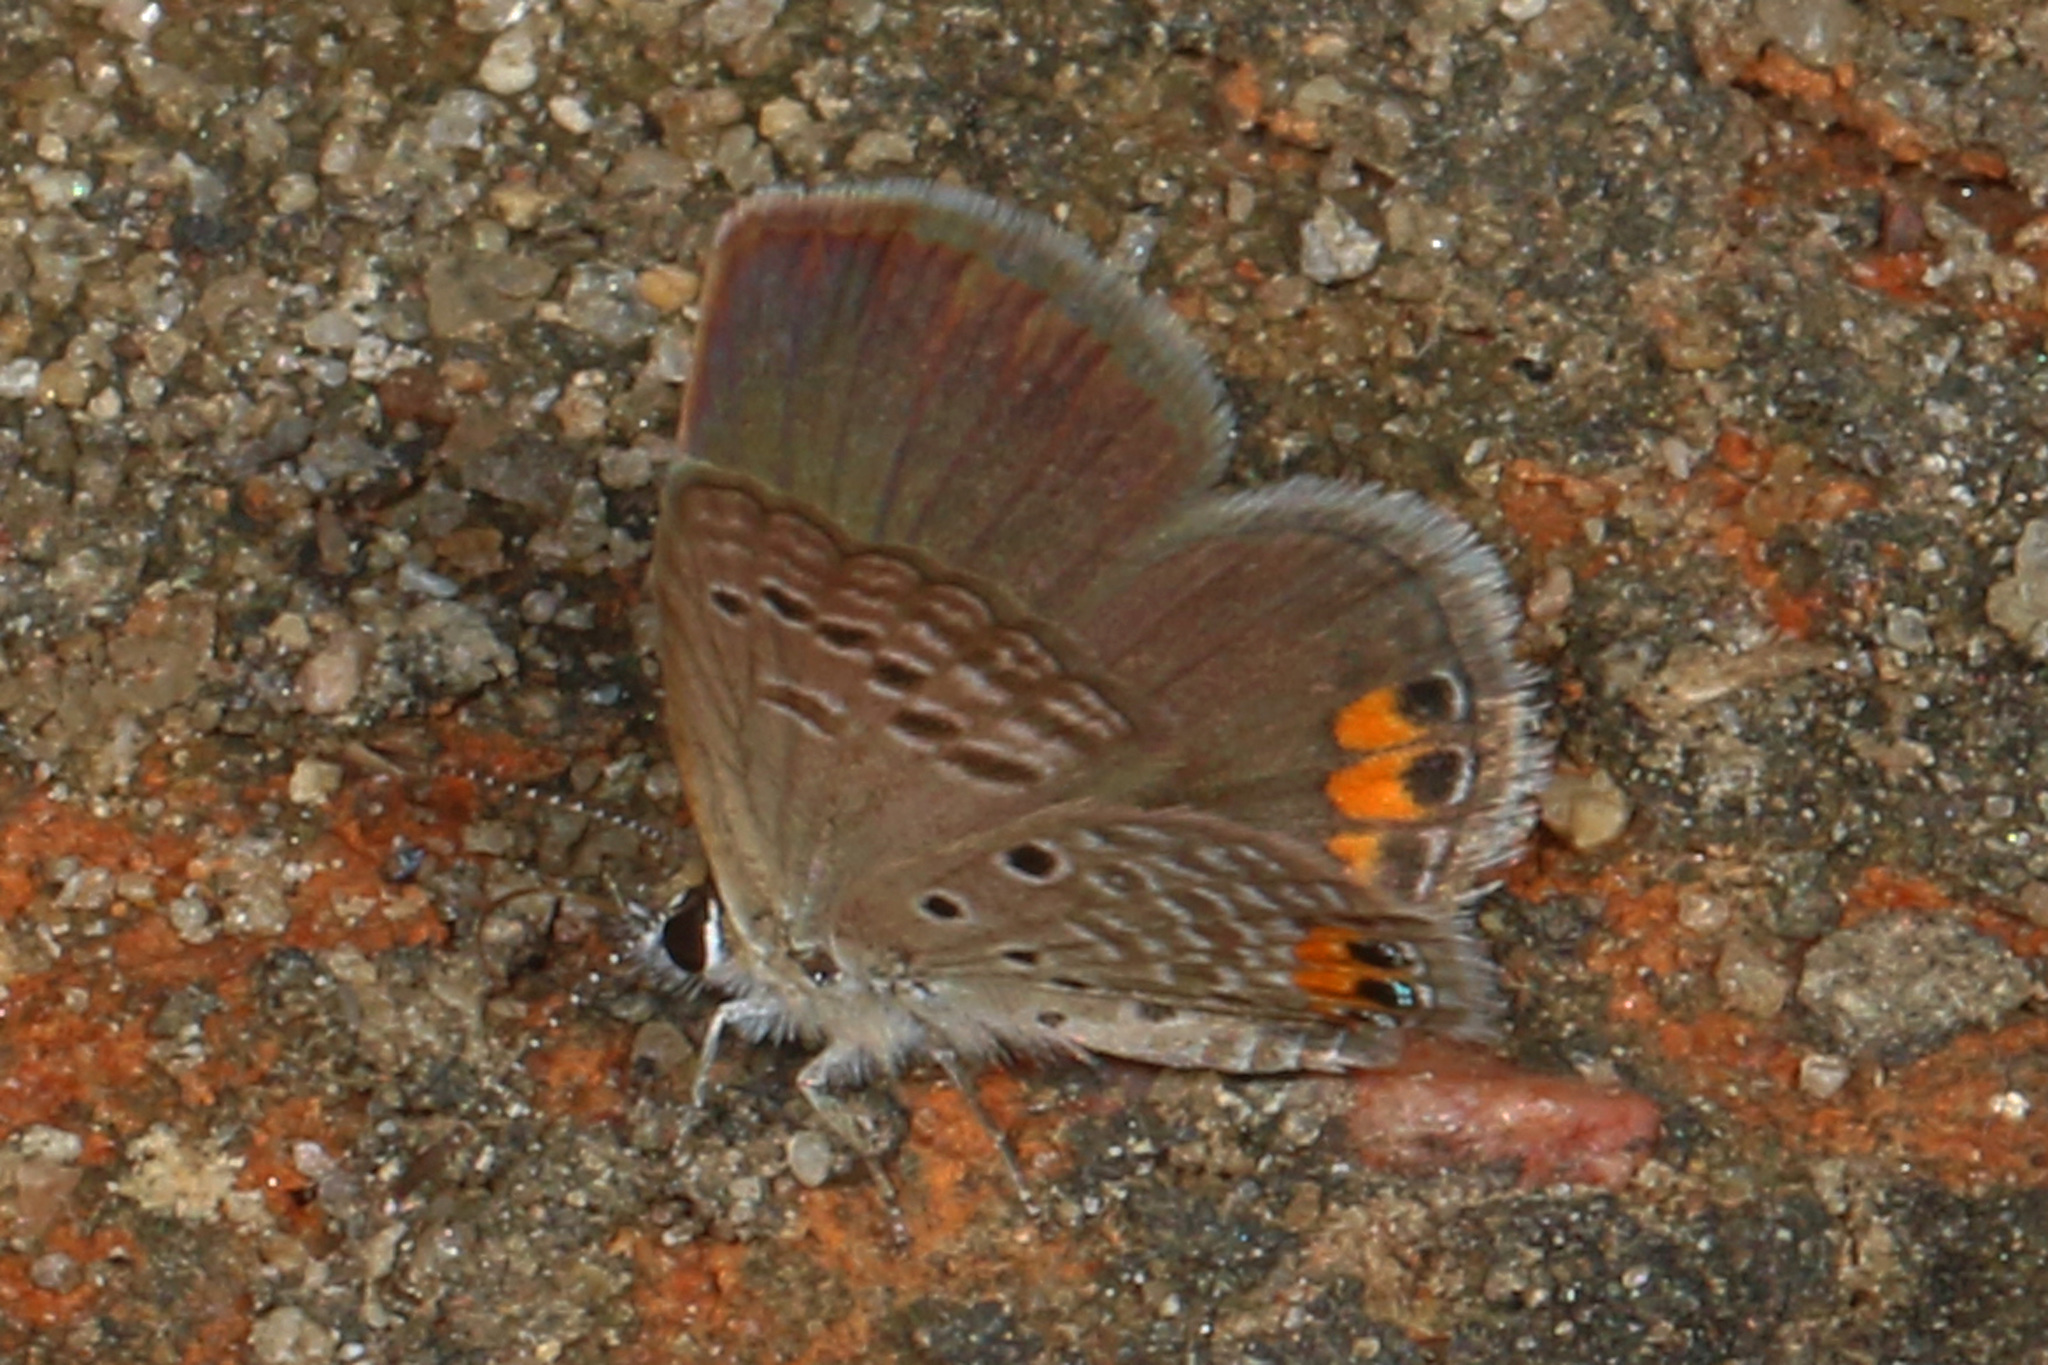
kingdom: Animalia
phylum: Arthropoda
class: Insecta
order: Lepidoptera
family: Lycaenidae
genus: Freyeria
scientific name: Freyeria trochylus
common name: Grass jewel
